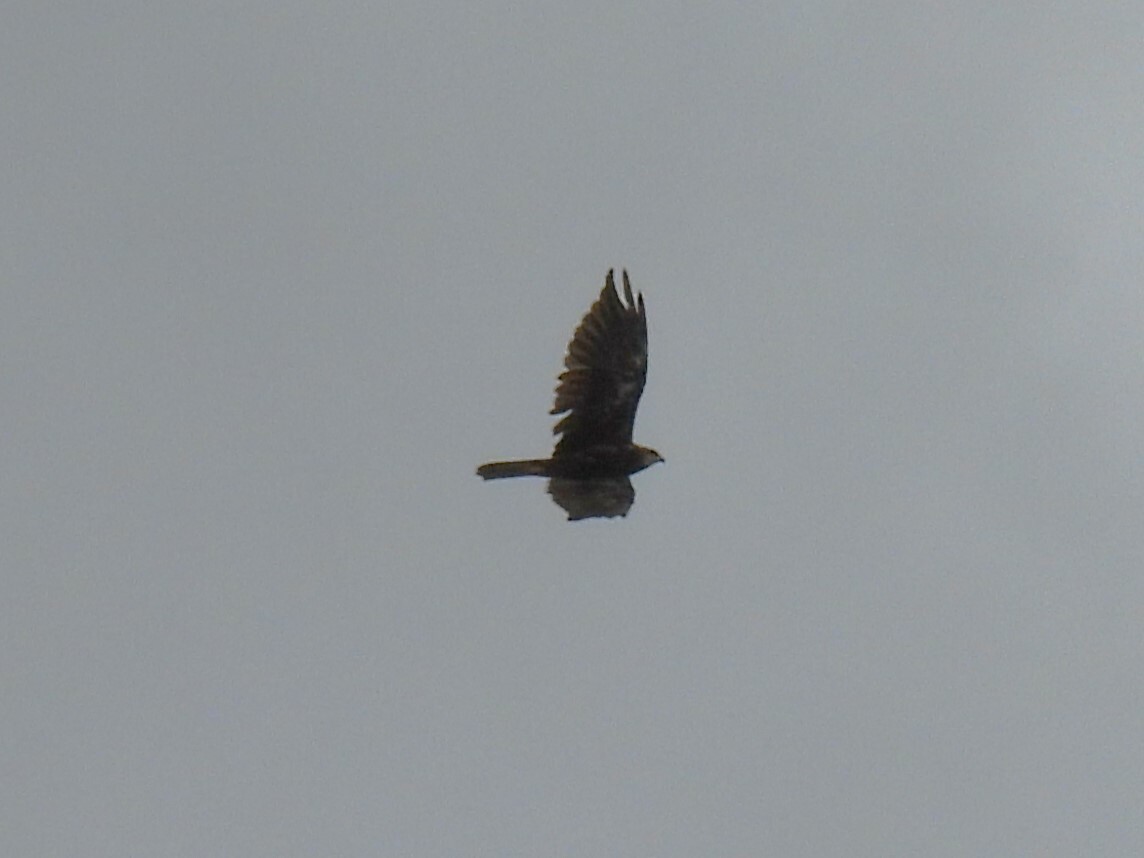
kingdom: Animalia
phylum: Chordata
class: Aves
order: Accipitriformes
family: Accipitridae
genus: Circus
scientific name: Circus aeruginosus
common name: Western marsh harrier
